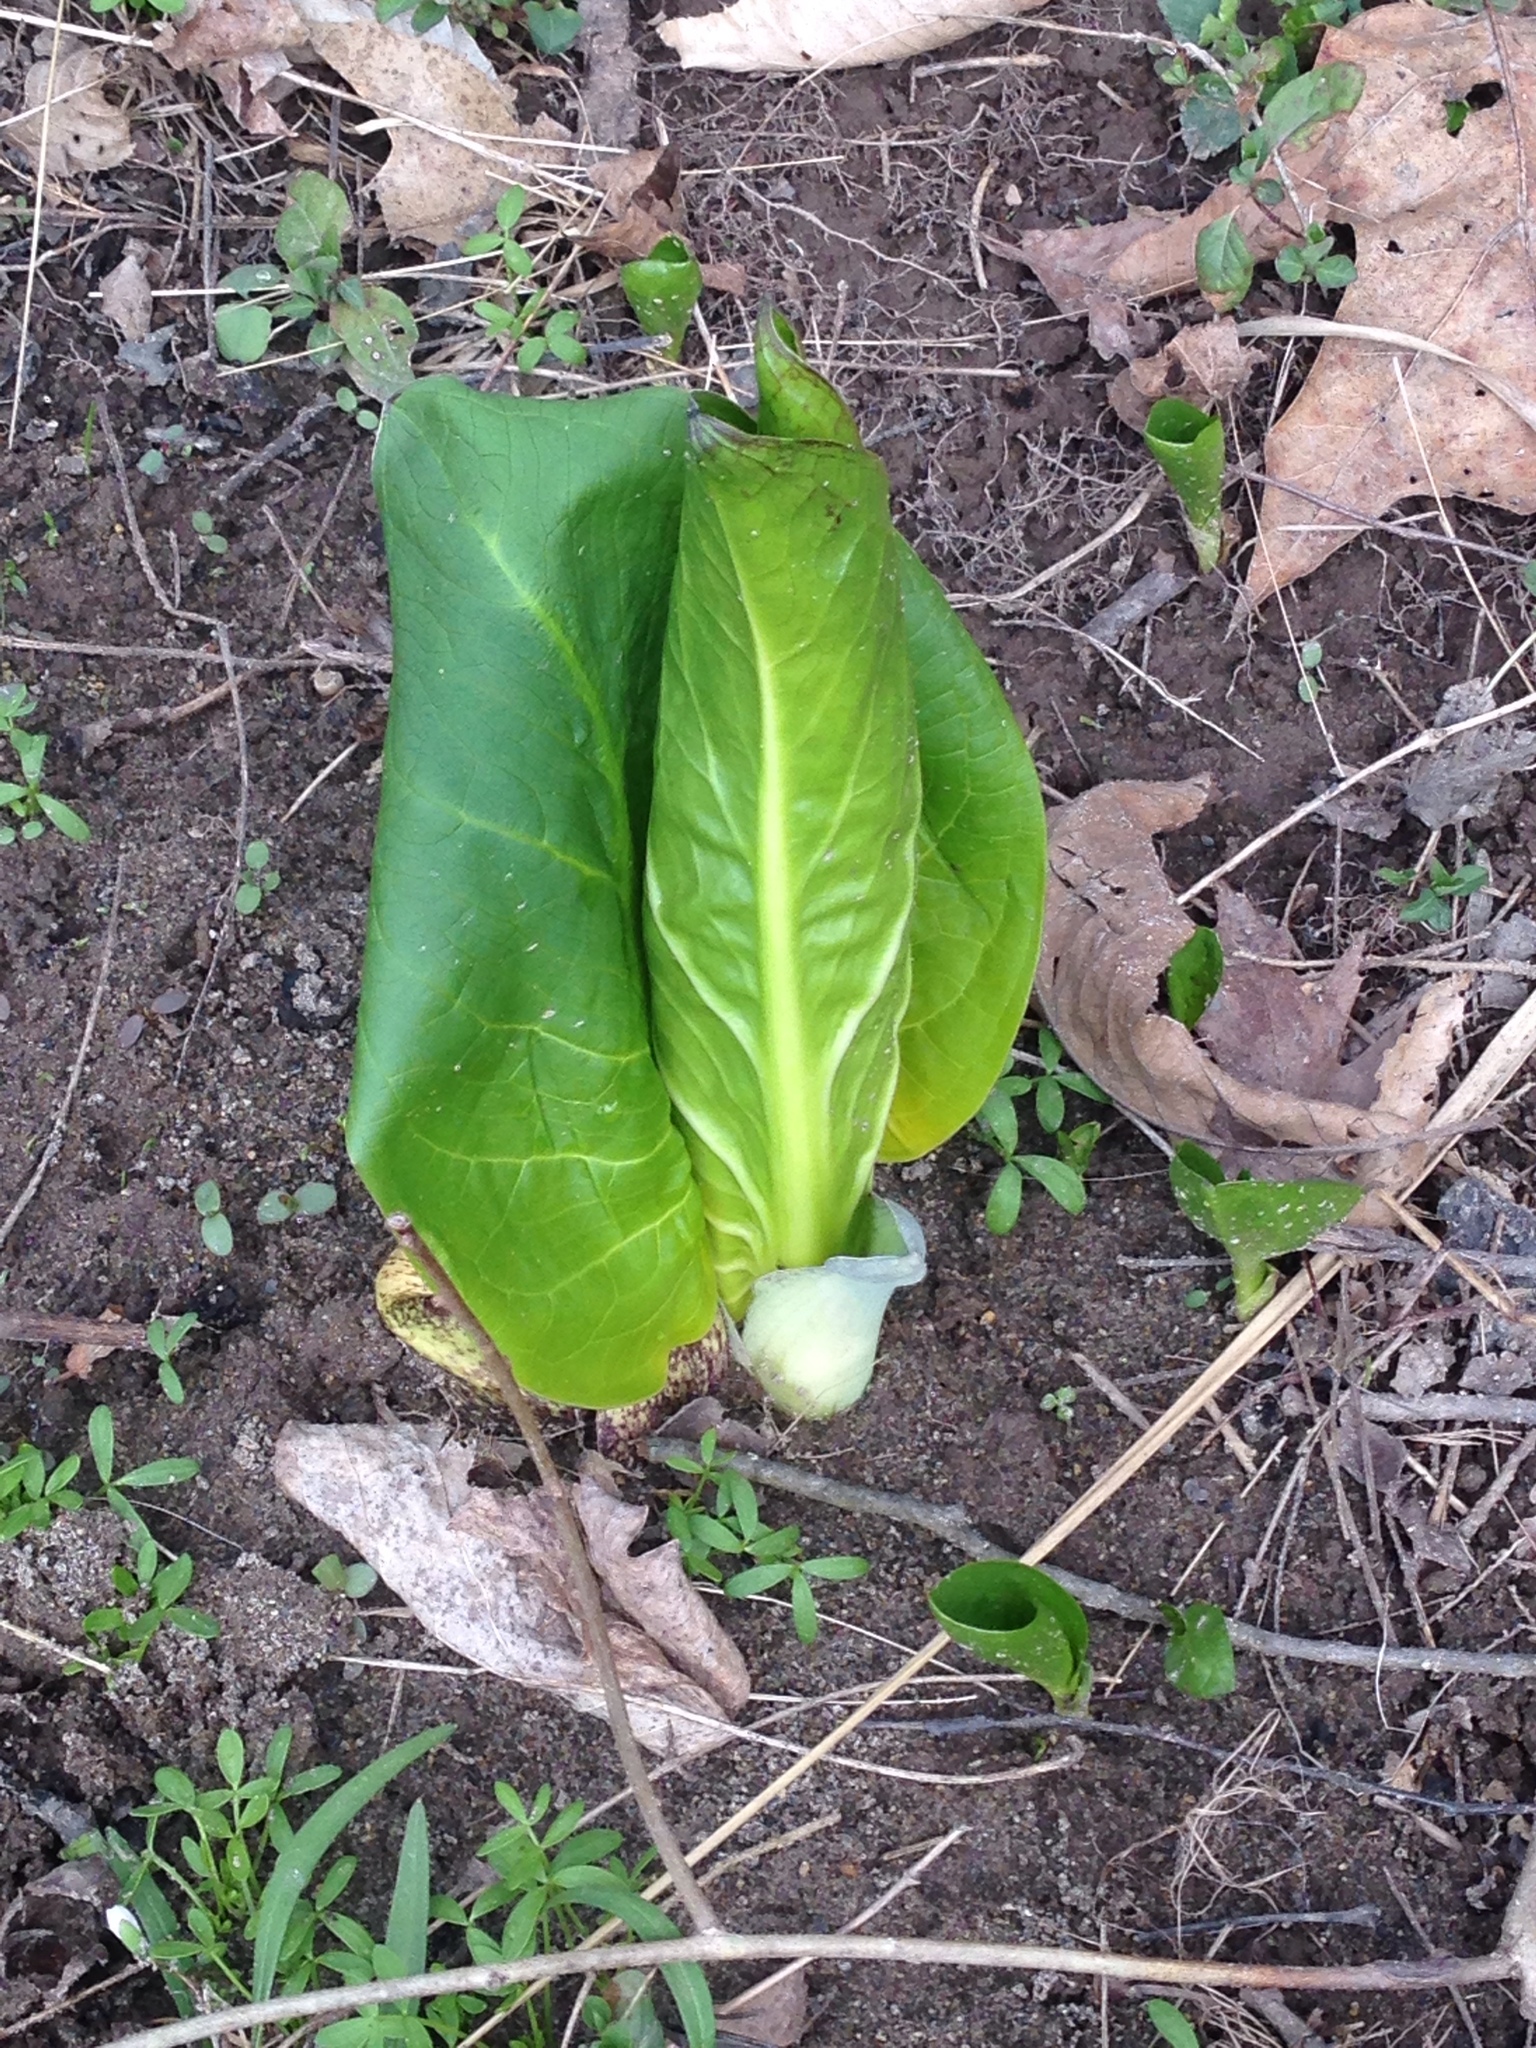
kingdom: Plantae
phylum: Tracheophyta
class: Liliopsida
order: Alismatales
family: Araceae
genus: Symplocarpus
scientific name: Symplocarpus foetidus
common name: Eastern skunk cabbage
